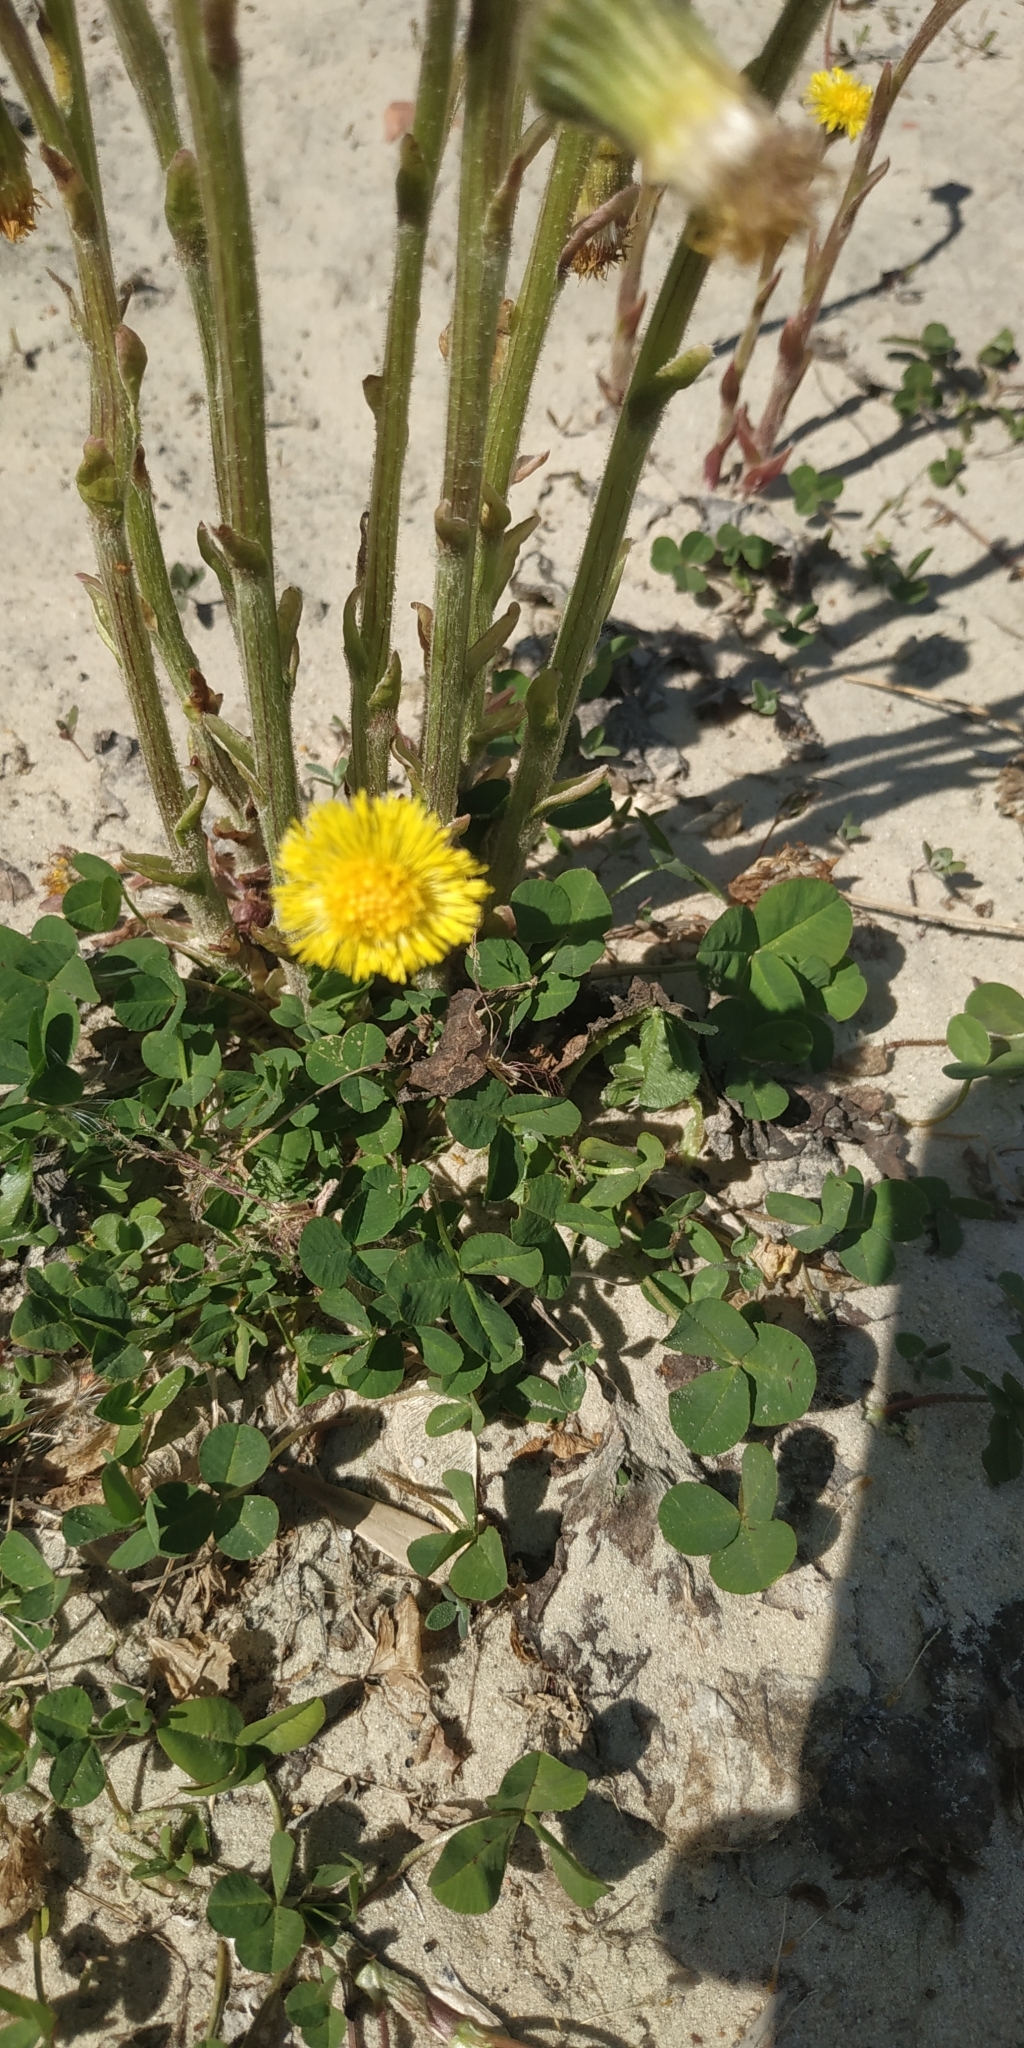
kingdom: Plantae
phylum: Tracheophyta
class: Magnoliopsida
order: Asterales
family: Asteraceae
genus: Tussilago
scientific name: Tussilago farfara
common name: Coltsfoot
